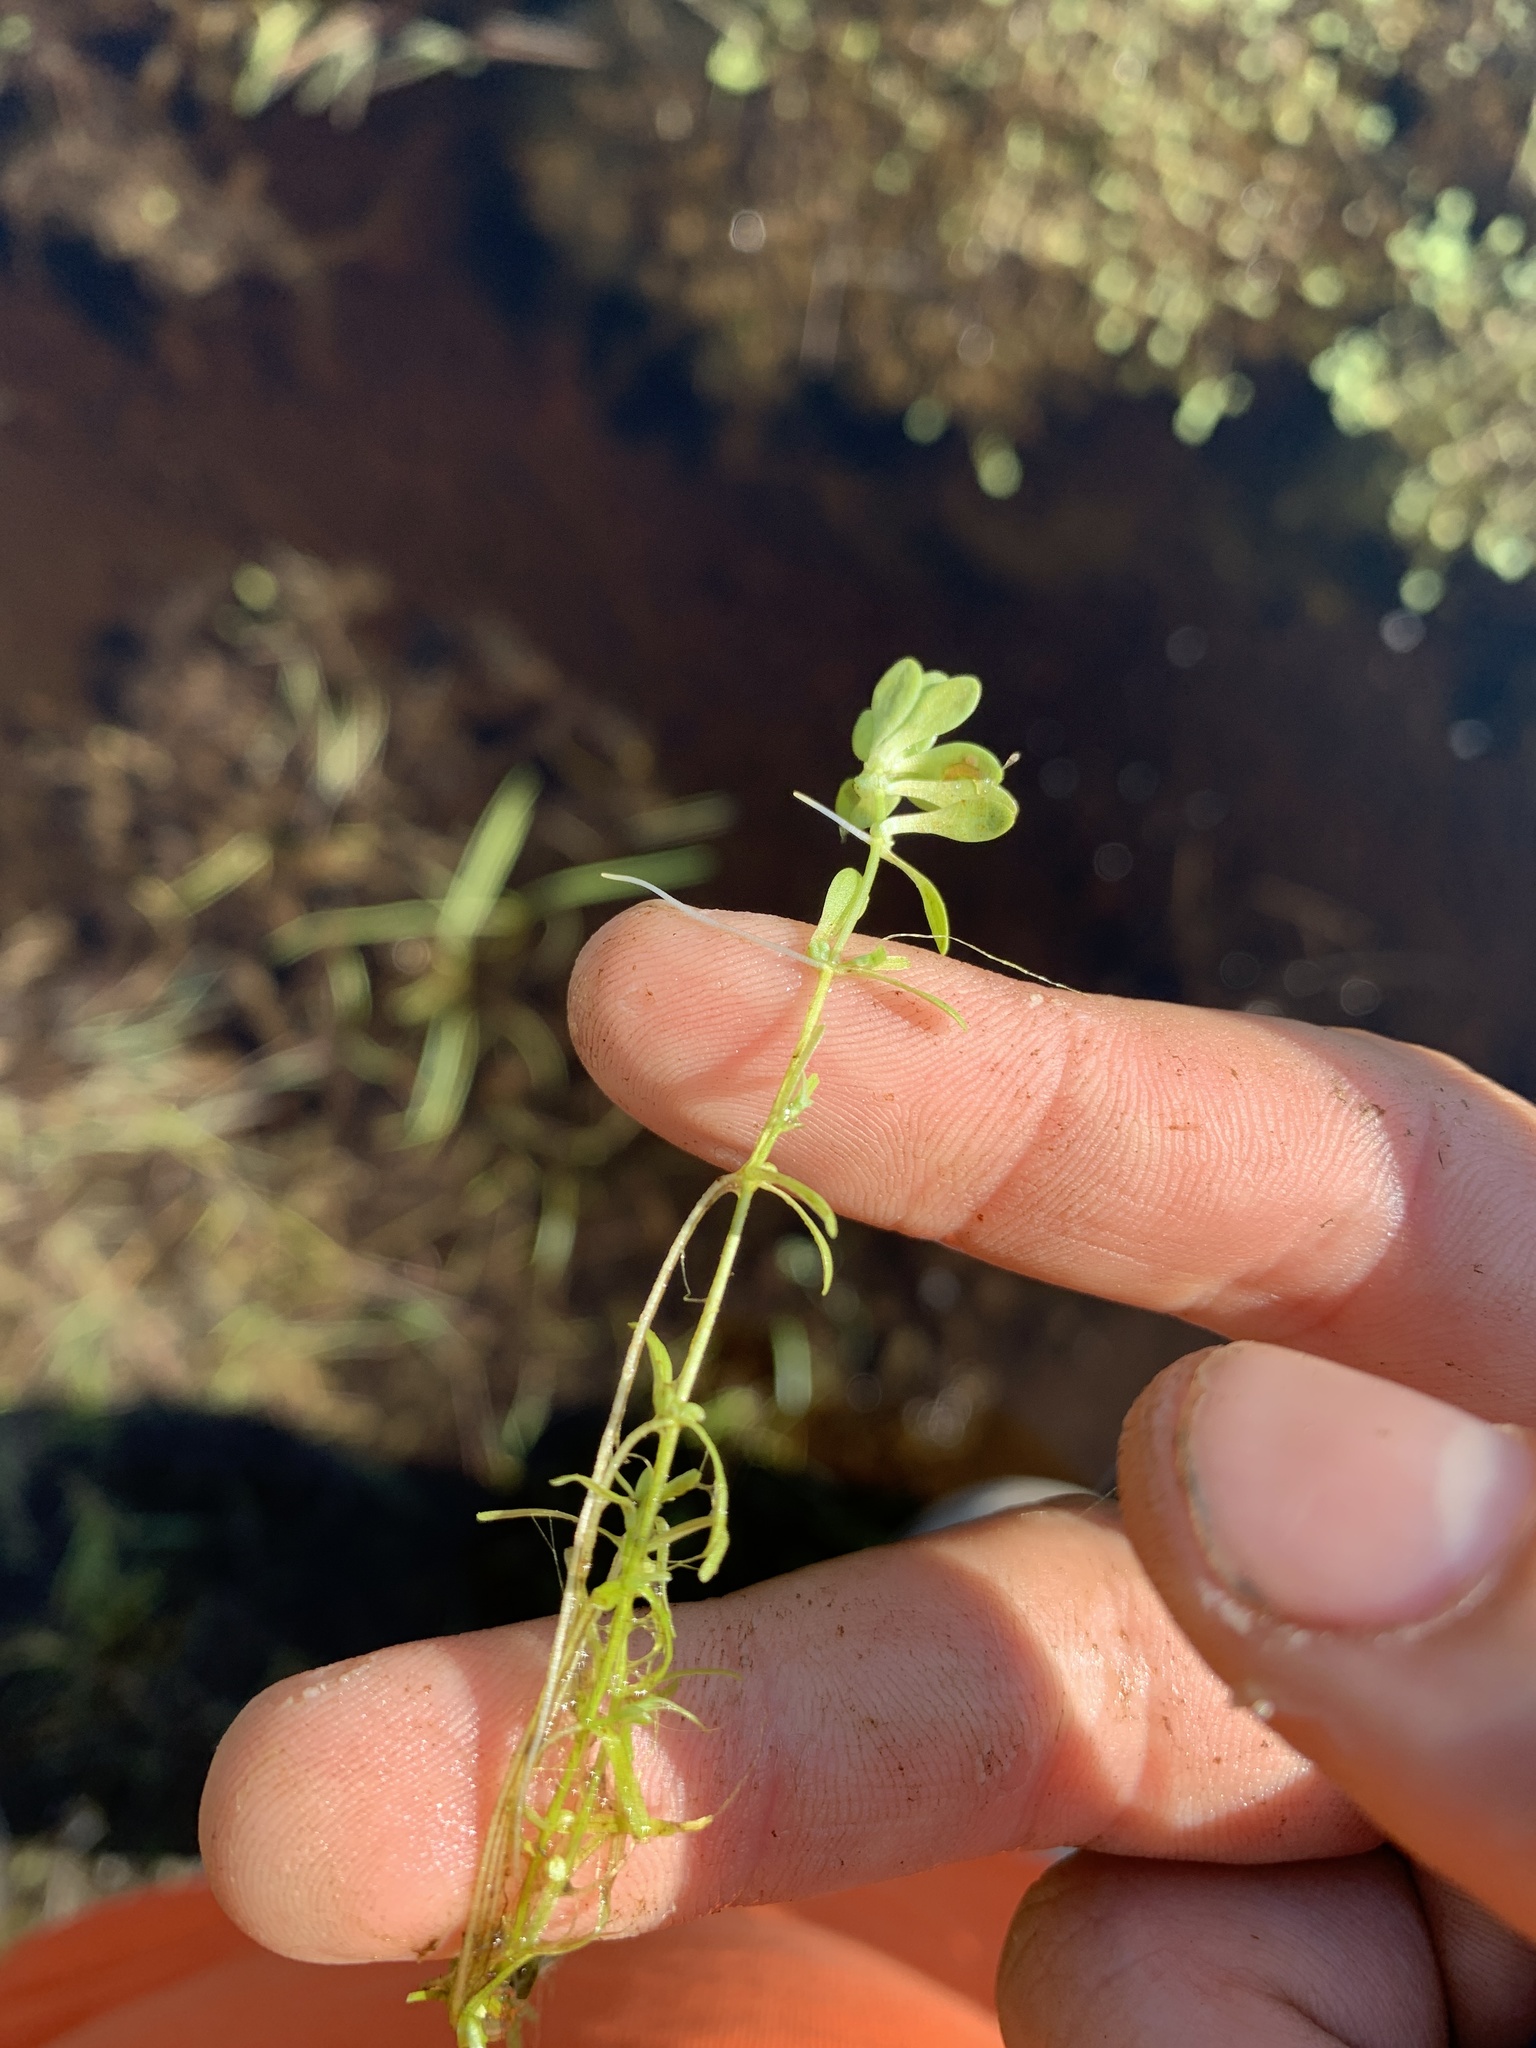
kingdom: Plantae
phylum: Tracheophyta
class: Magnoliopsida
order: Lamiales
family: Plantaginaceae
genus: Callitriche
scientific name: Callitriche palustris
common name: Spring water-starwort
